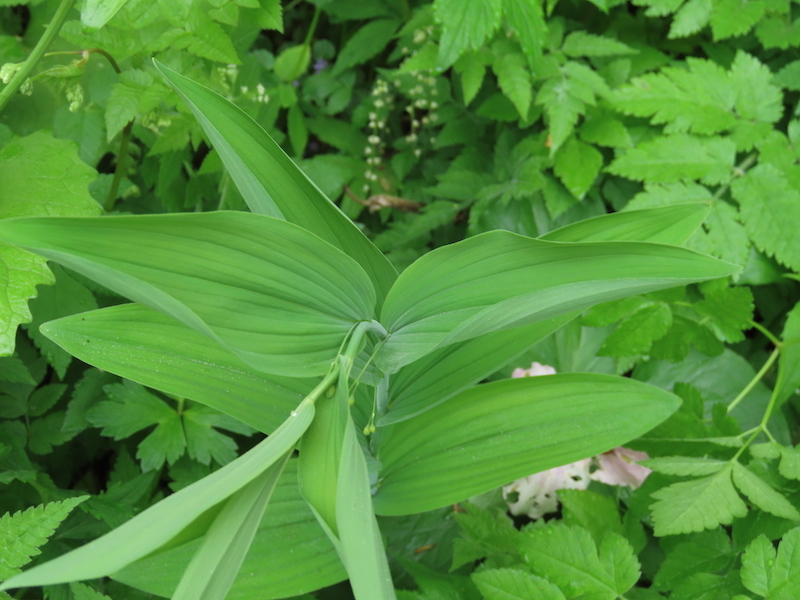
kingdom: Plantae
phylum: Tracheophyta
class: Liliopsida
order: Asparagales
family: Asparagaceae
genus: Polygonatum
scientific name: Polygonatum biflorum
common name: American solomon's-seal
